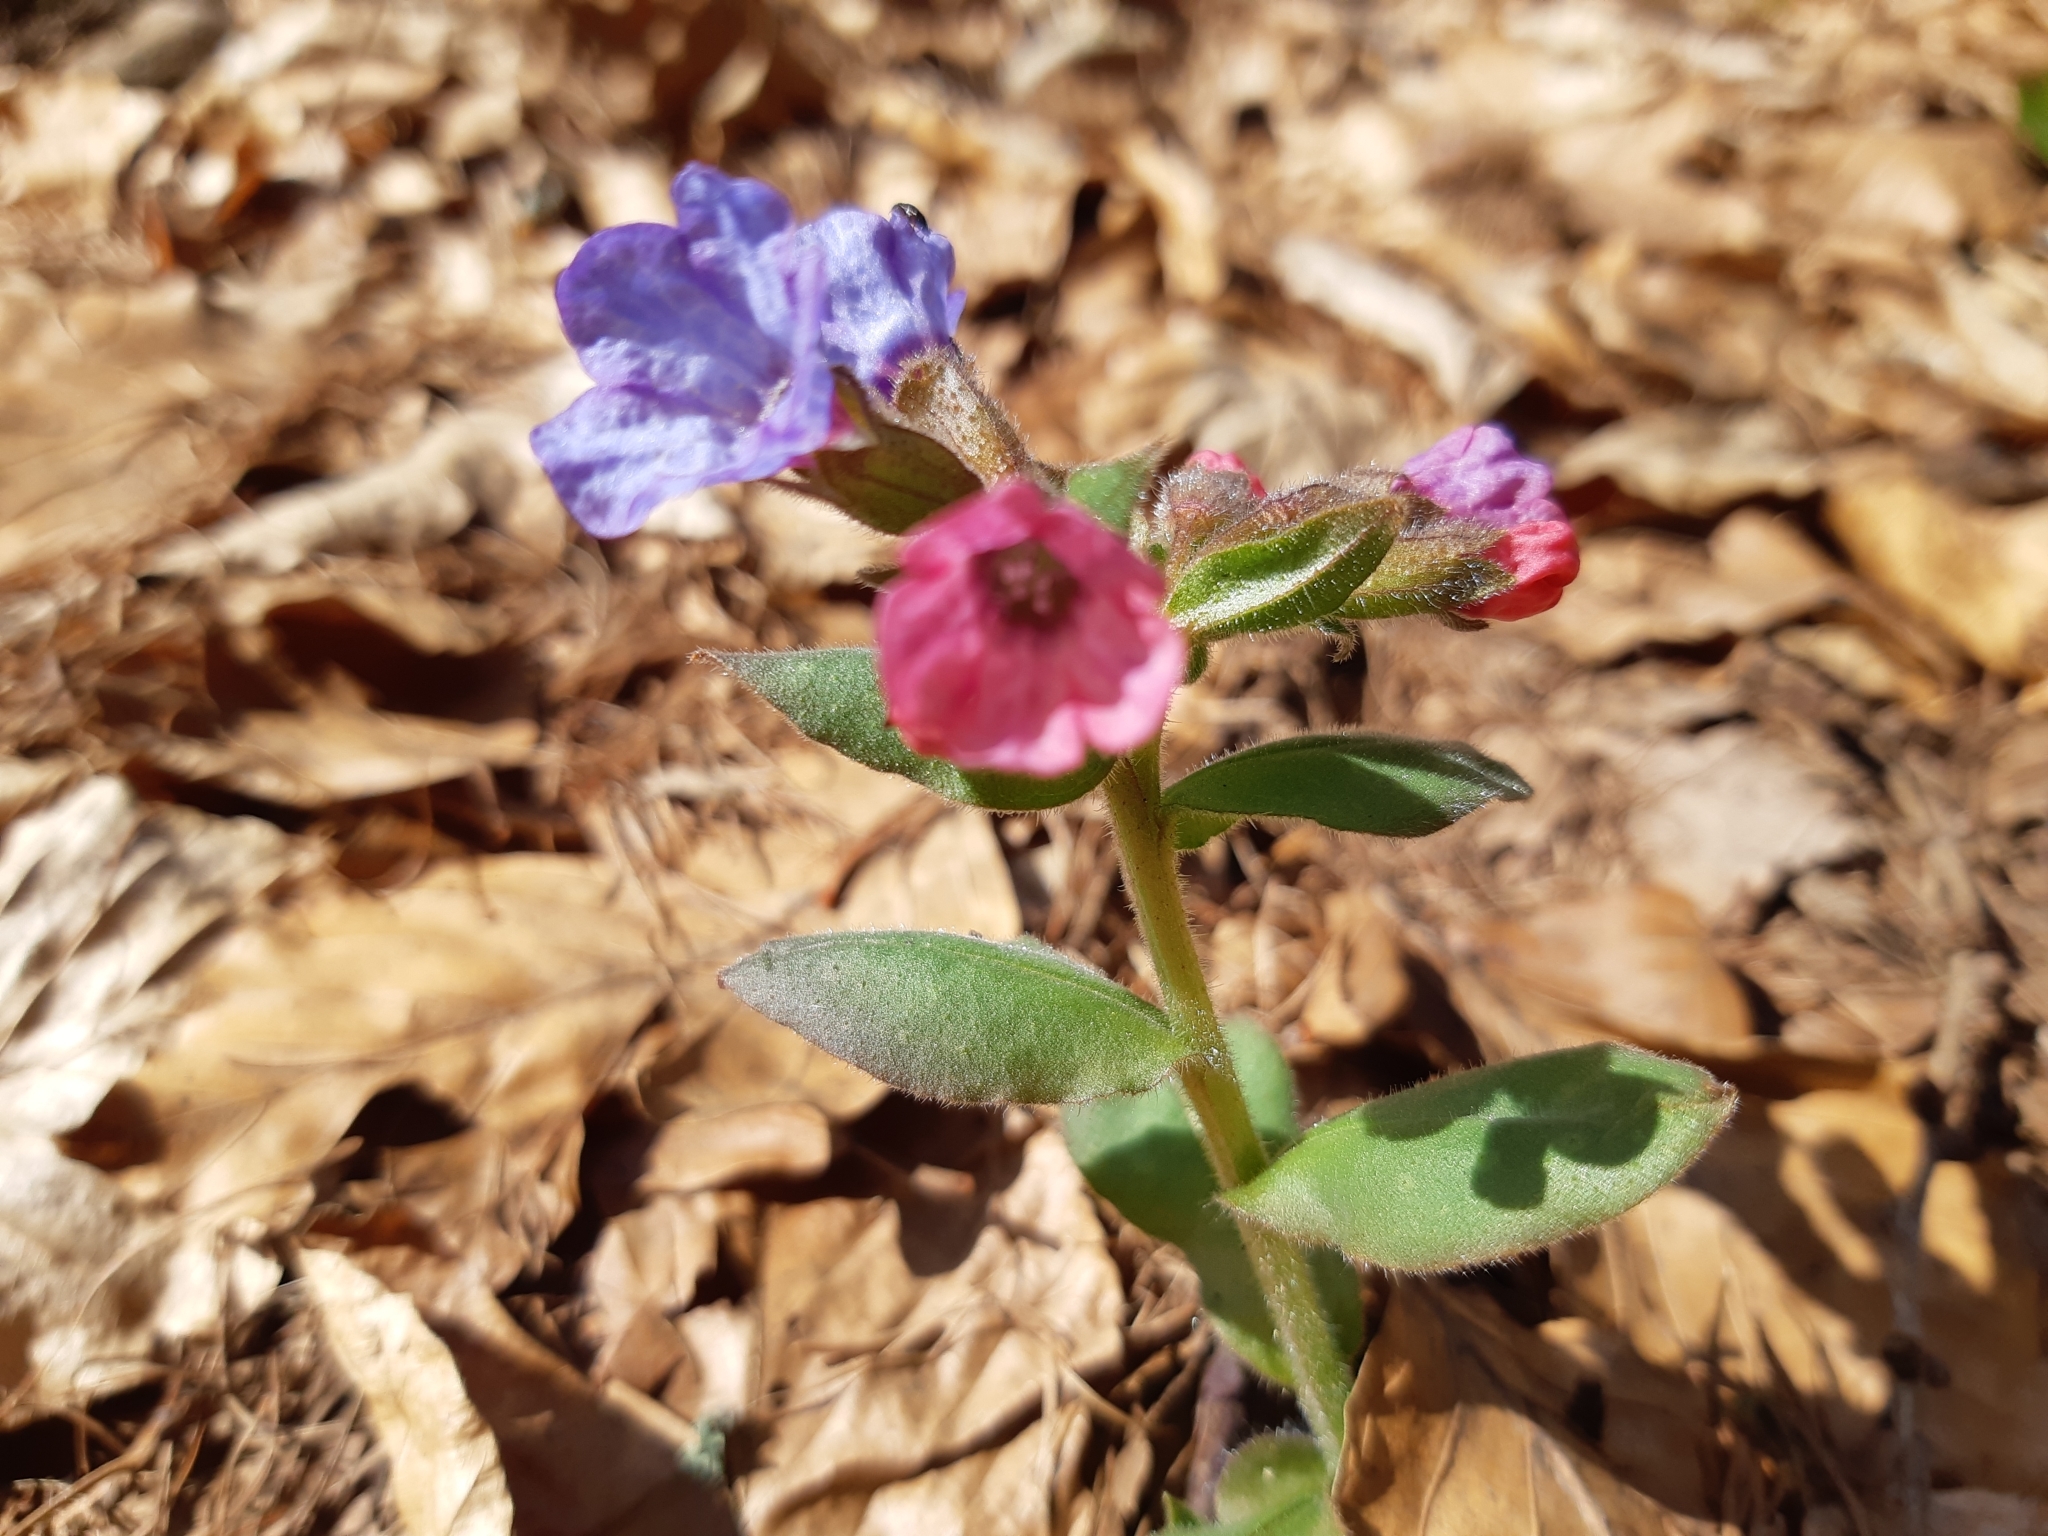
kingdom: Plantae
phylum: Tracheophyta
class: Magnoliopsida
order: Boraginales
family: Boraginaceae
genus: Pulmonaria
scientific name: Pulmonaria obscura
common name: Suffolk lungwort
